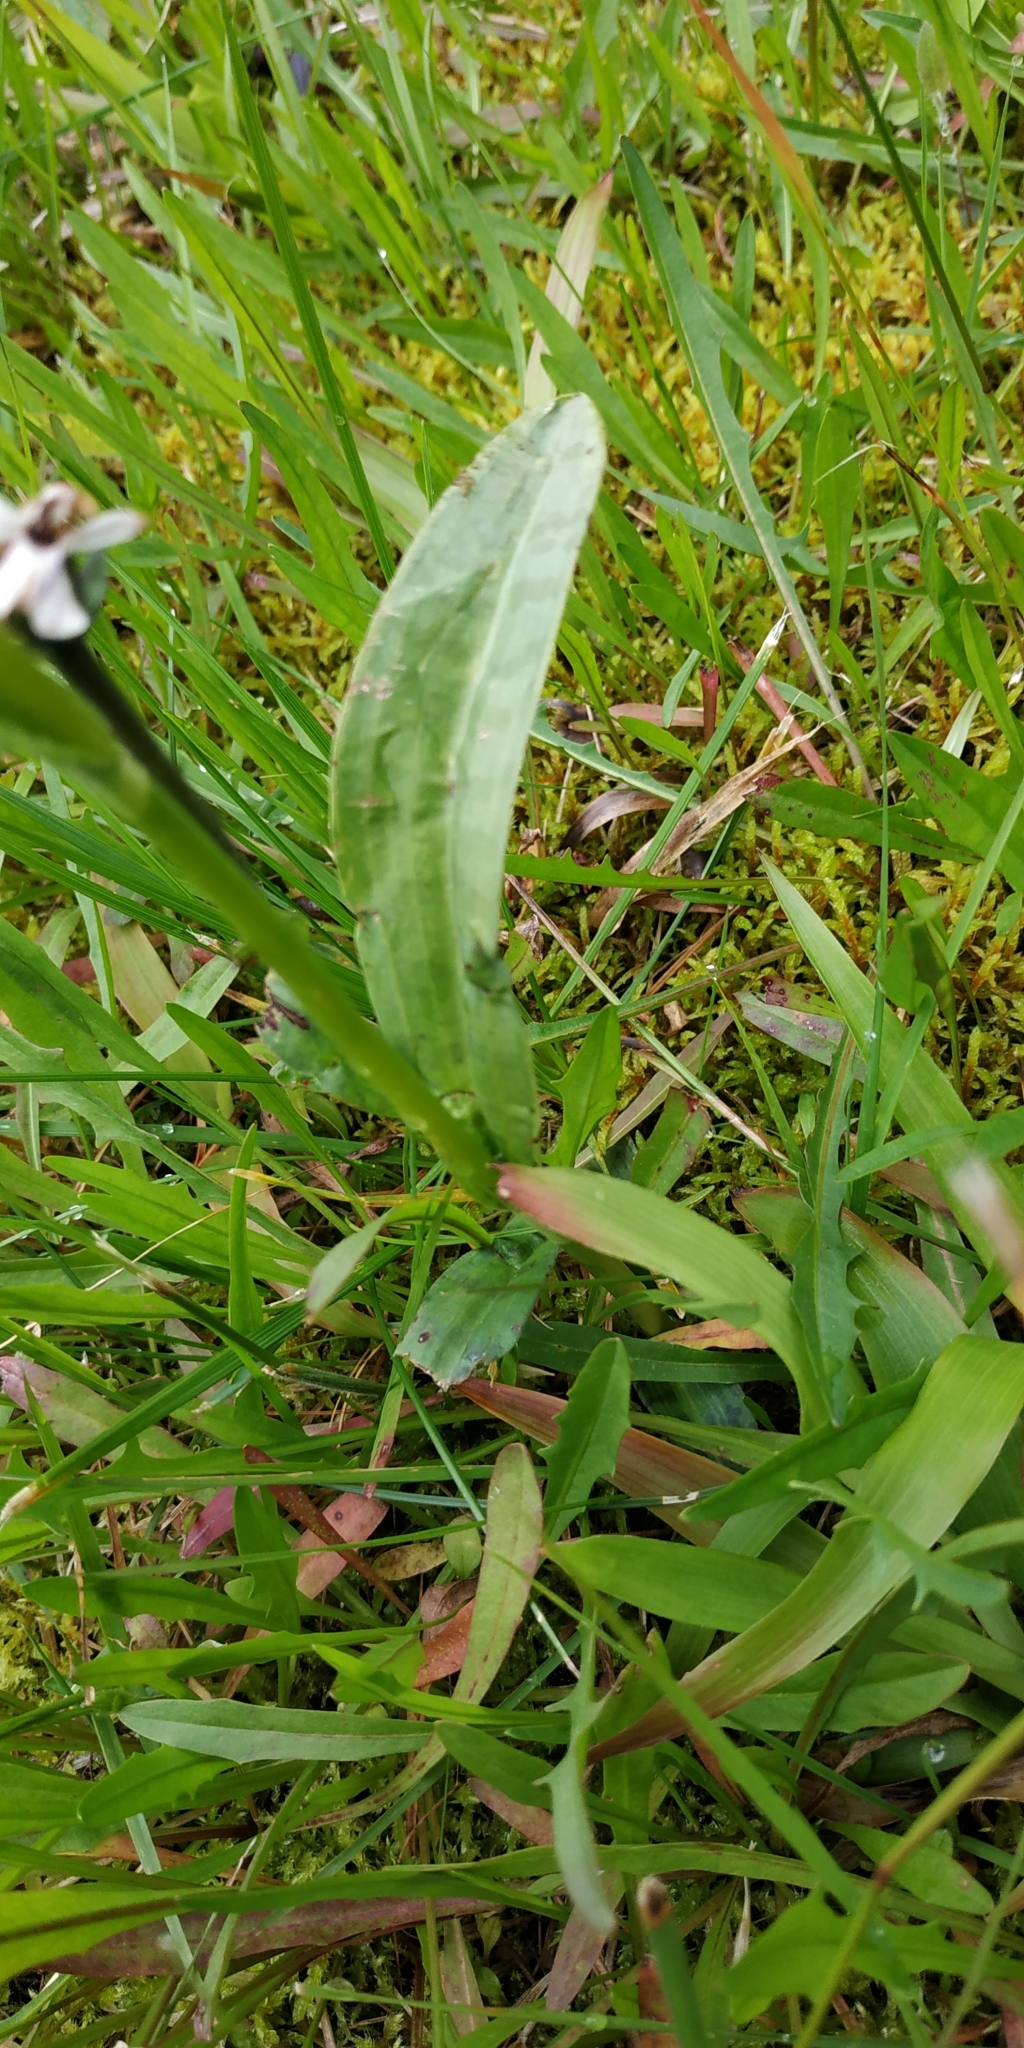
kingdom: Plantae
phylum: Tracheophyta
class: Liliopsida
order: Asparagales
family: Orchidaceae
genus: Dactylorhiza
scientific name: Dactylorhiza maculata
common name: Heath spotted-orchid
